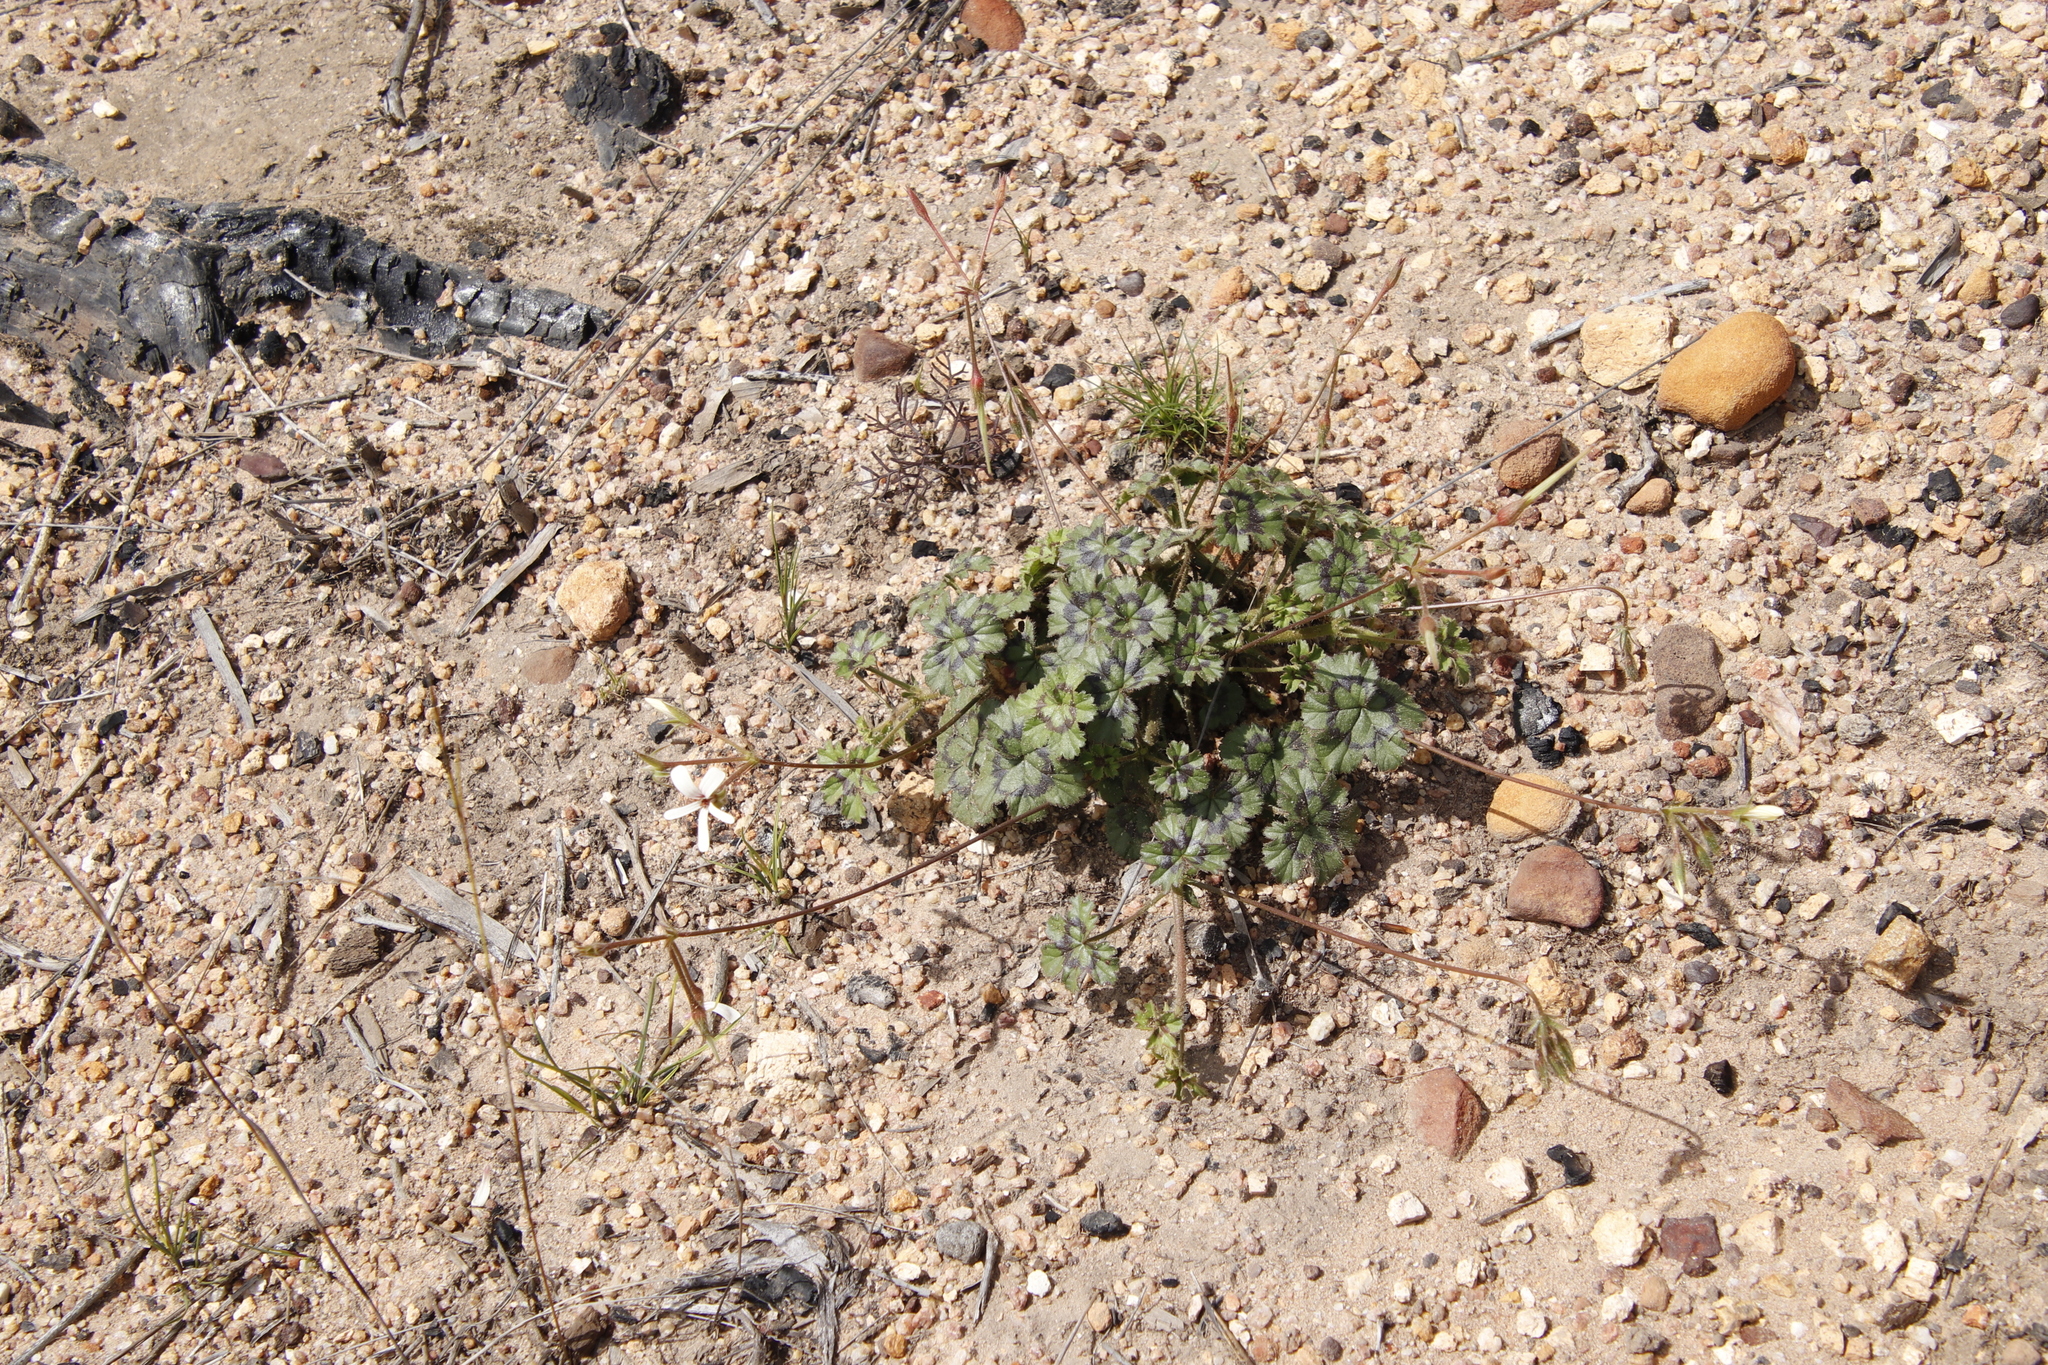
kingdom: Plantae
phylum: Tracheophyta
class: Magnoliopsida
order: Geraniales
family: Geraniaceae
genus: Pelargonium
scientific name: Pelargonium elongatum
